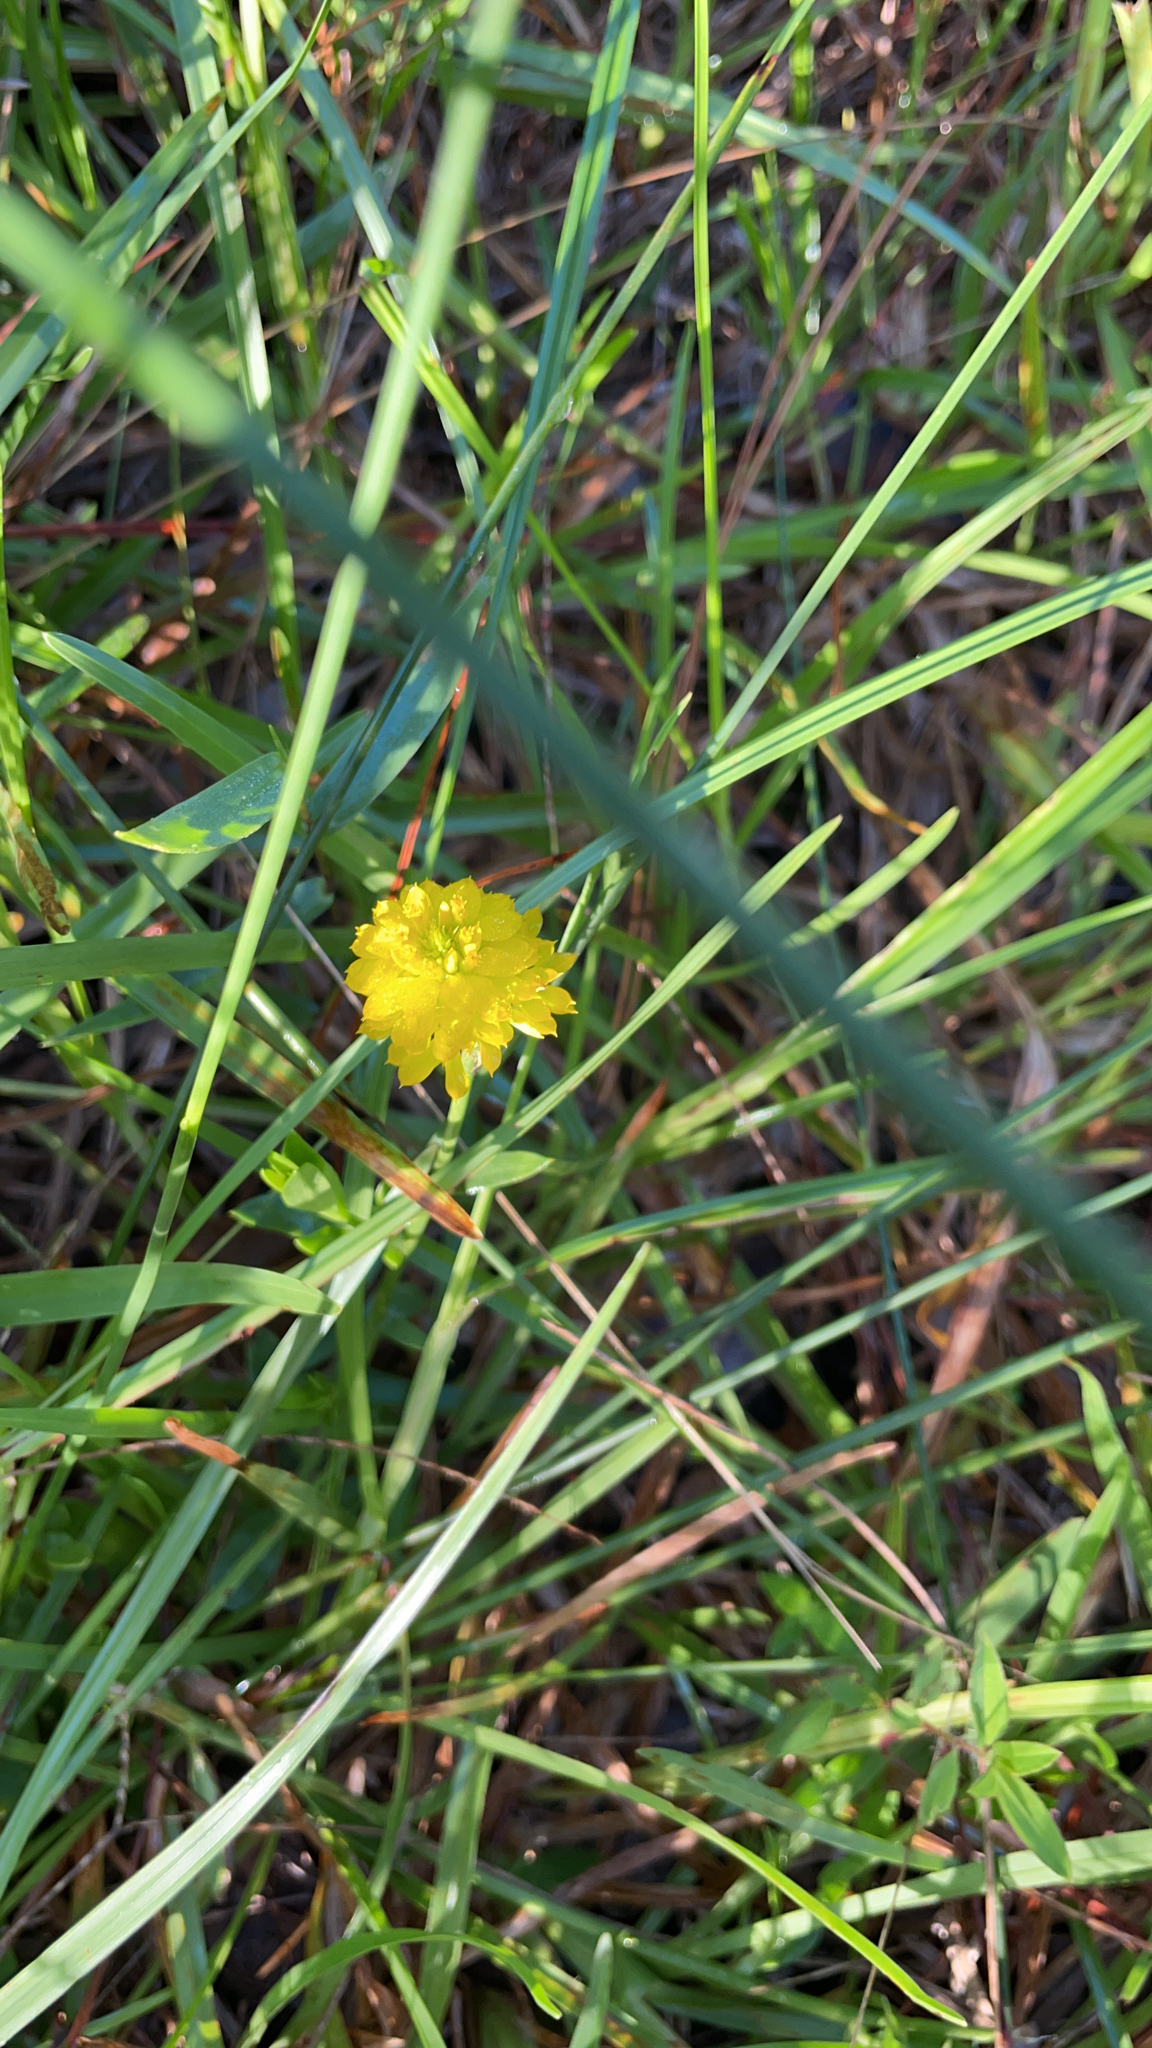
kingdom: Plantae
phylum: Tracheophyta
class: Magnoliopsida
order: Fabales
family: Polygalaceae
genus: Polygala
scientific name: Polygala rugelii
